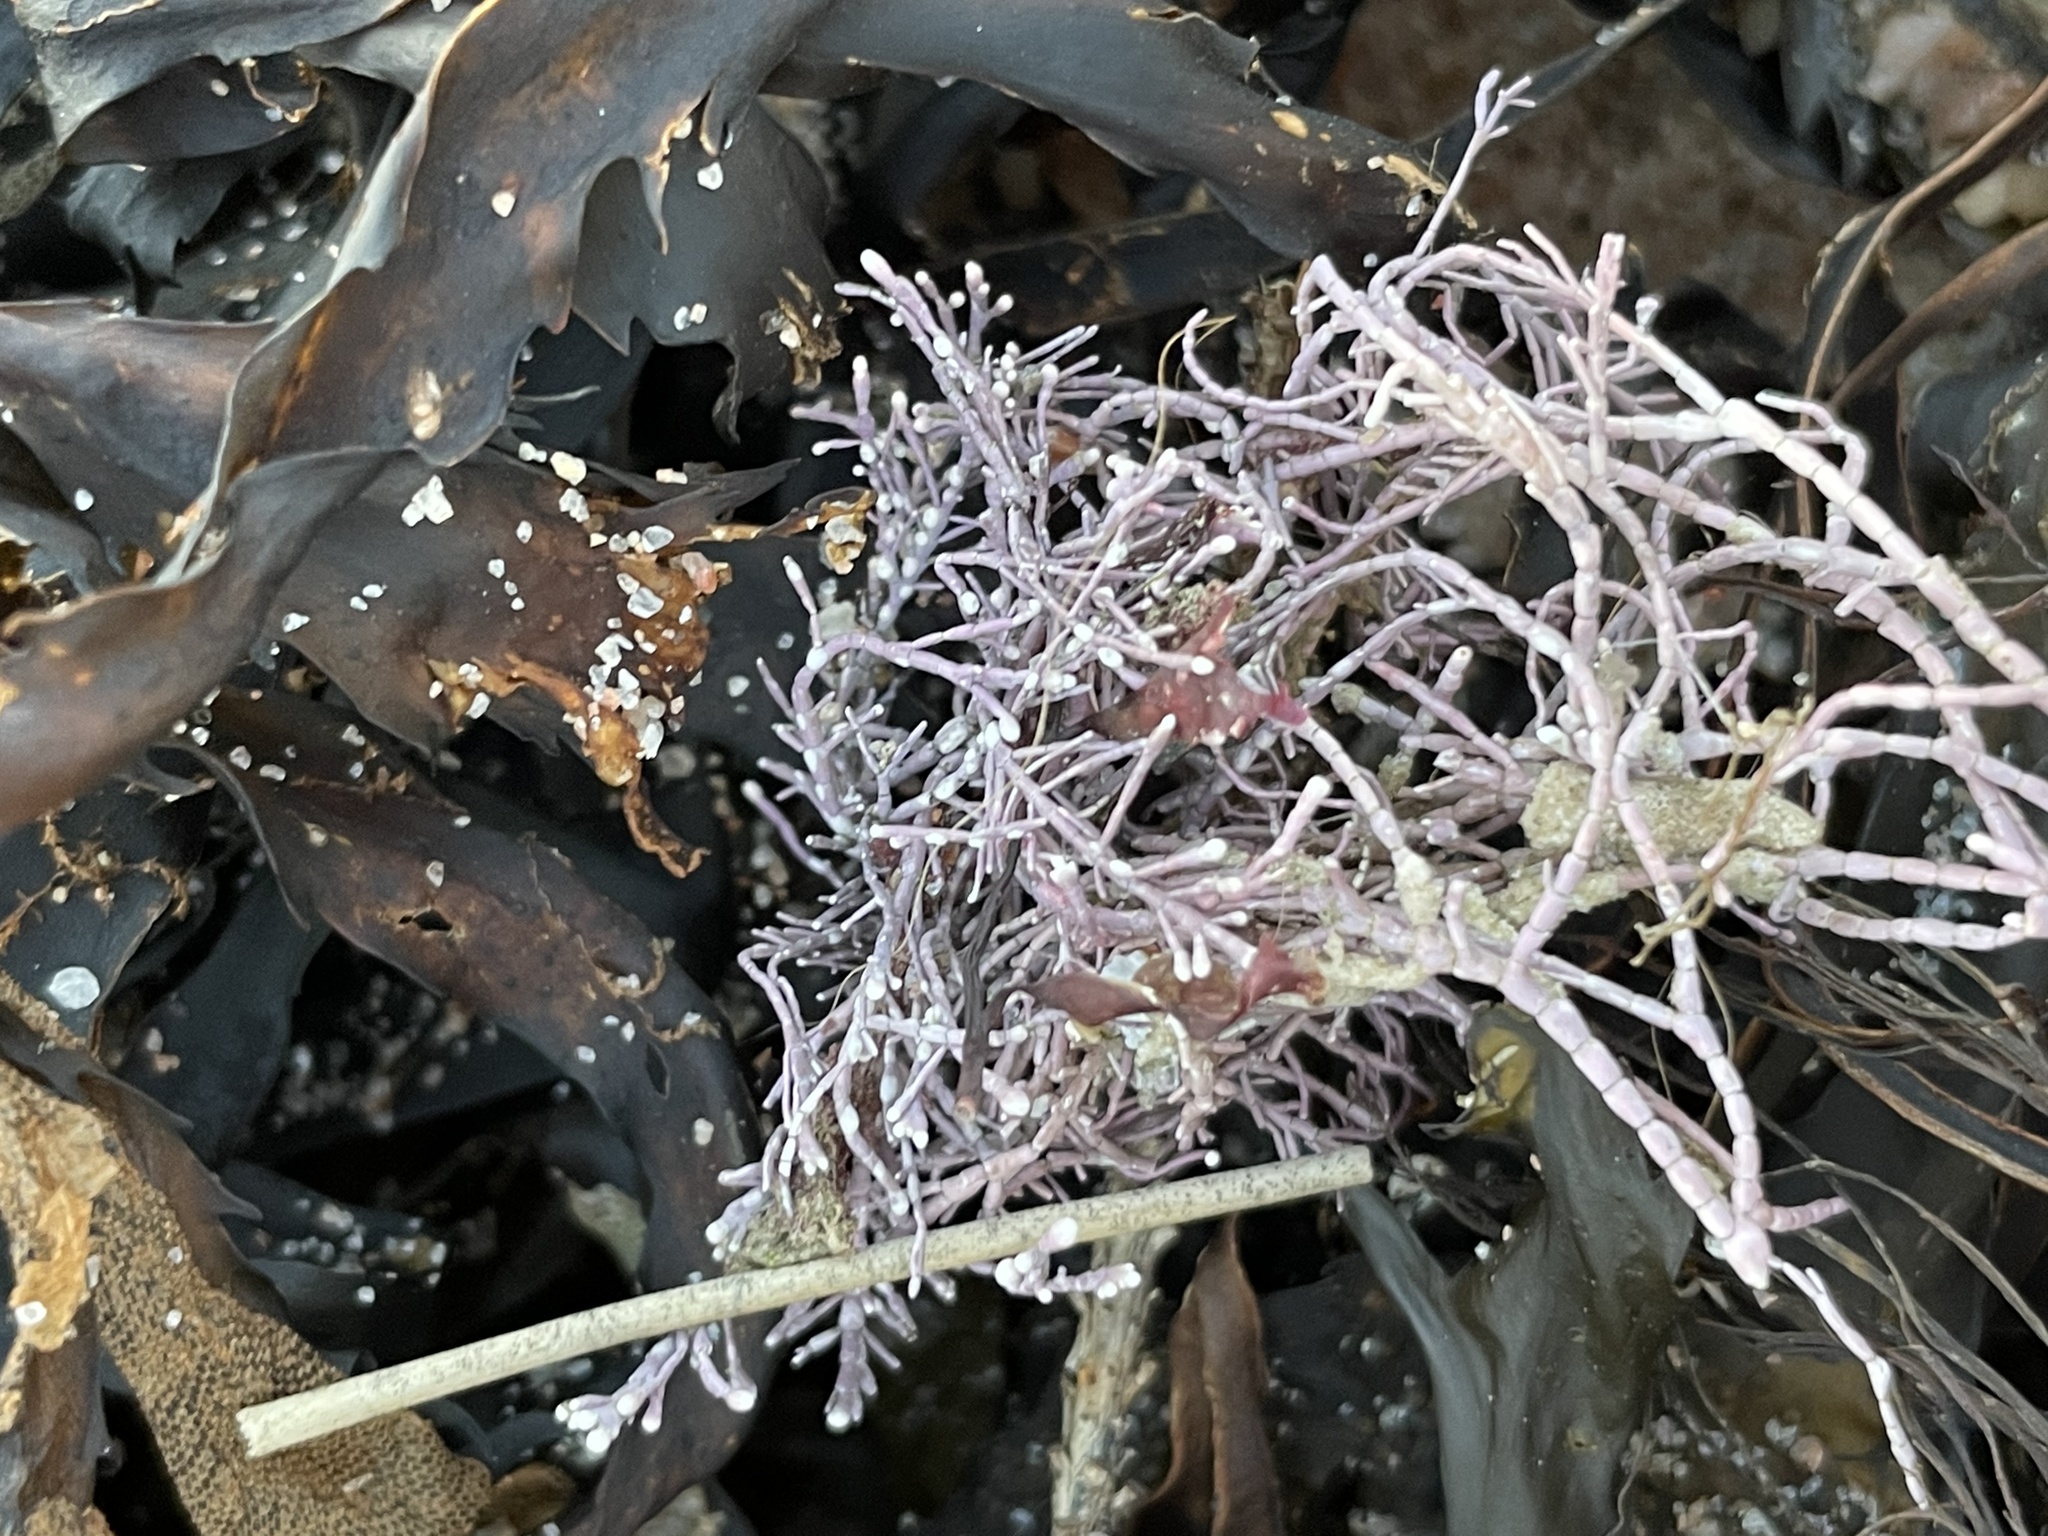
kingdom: Plantae
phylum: Rhodophyta
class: Florideophyceae
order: Corallinales
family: Corallinaceae
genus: Corallina
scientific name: Corallina officinalis
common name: Coral weed
